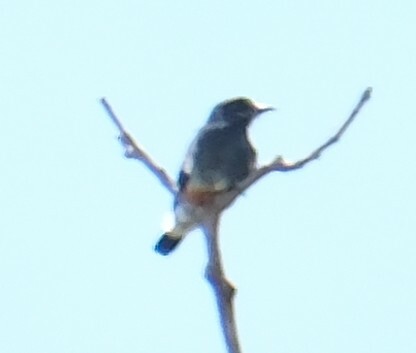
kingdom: Animalia
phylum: Chordata
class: Aves
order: Piciformes
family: Bucconidae
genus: Chelidoptera
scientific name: Chelidoptera tenebrosa
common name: Swallow-winged puffbird
